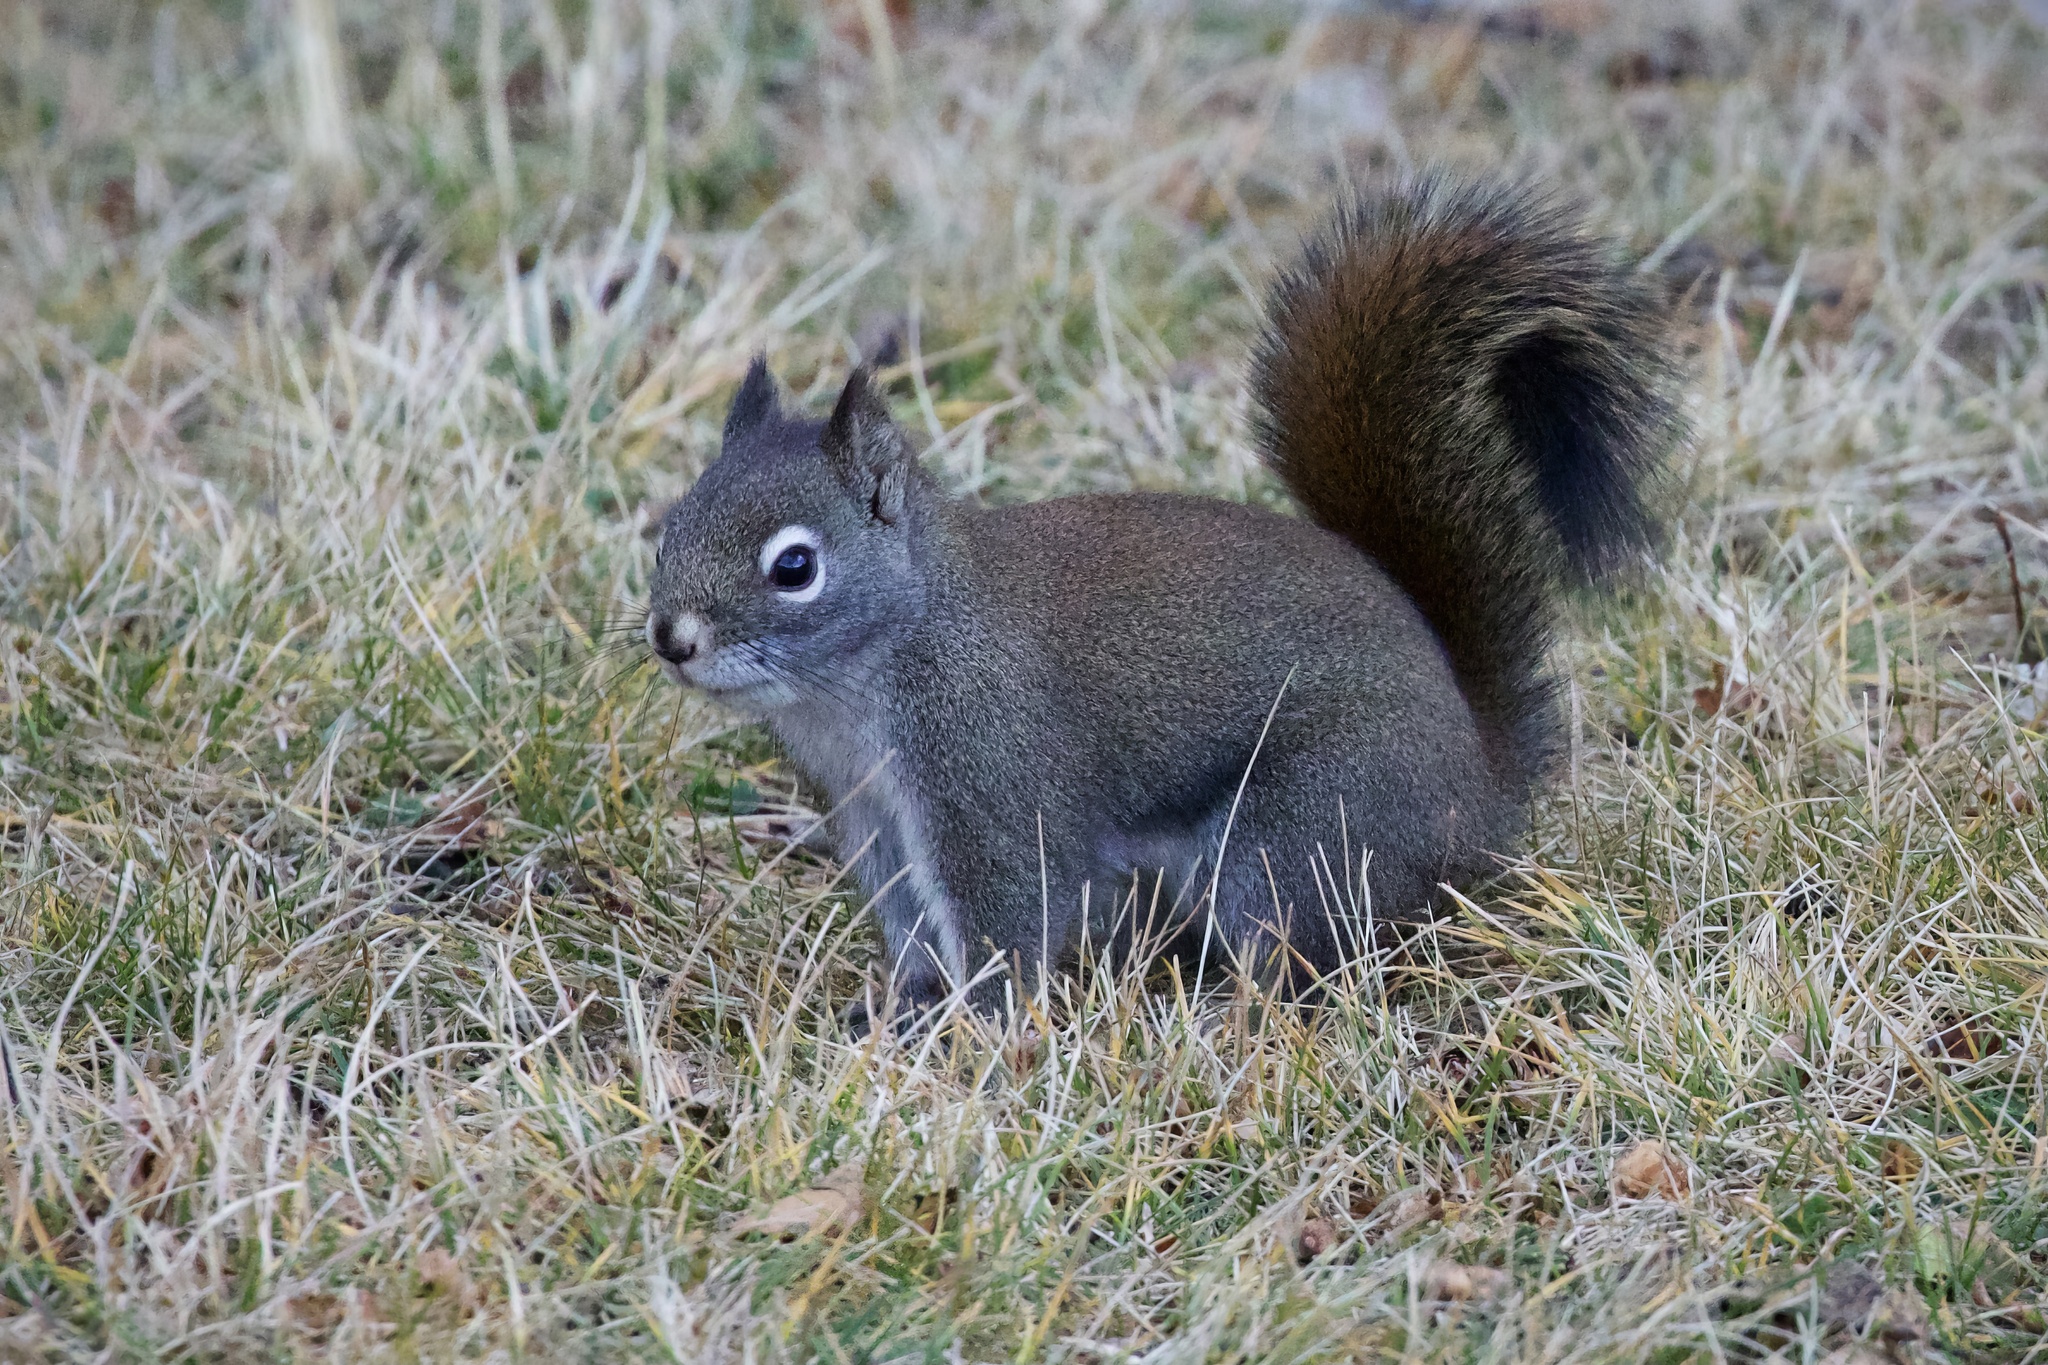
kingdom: Animalia
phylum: Chordata
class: Mammalia
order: Rodentia
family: Sciuridae
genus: Tamiasciurus
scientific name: Tamiasciurus hudsonicus
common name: Red squirrel
